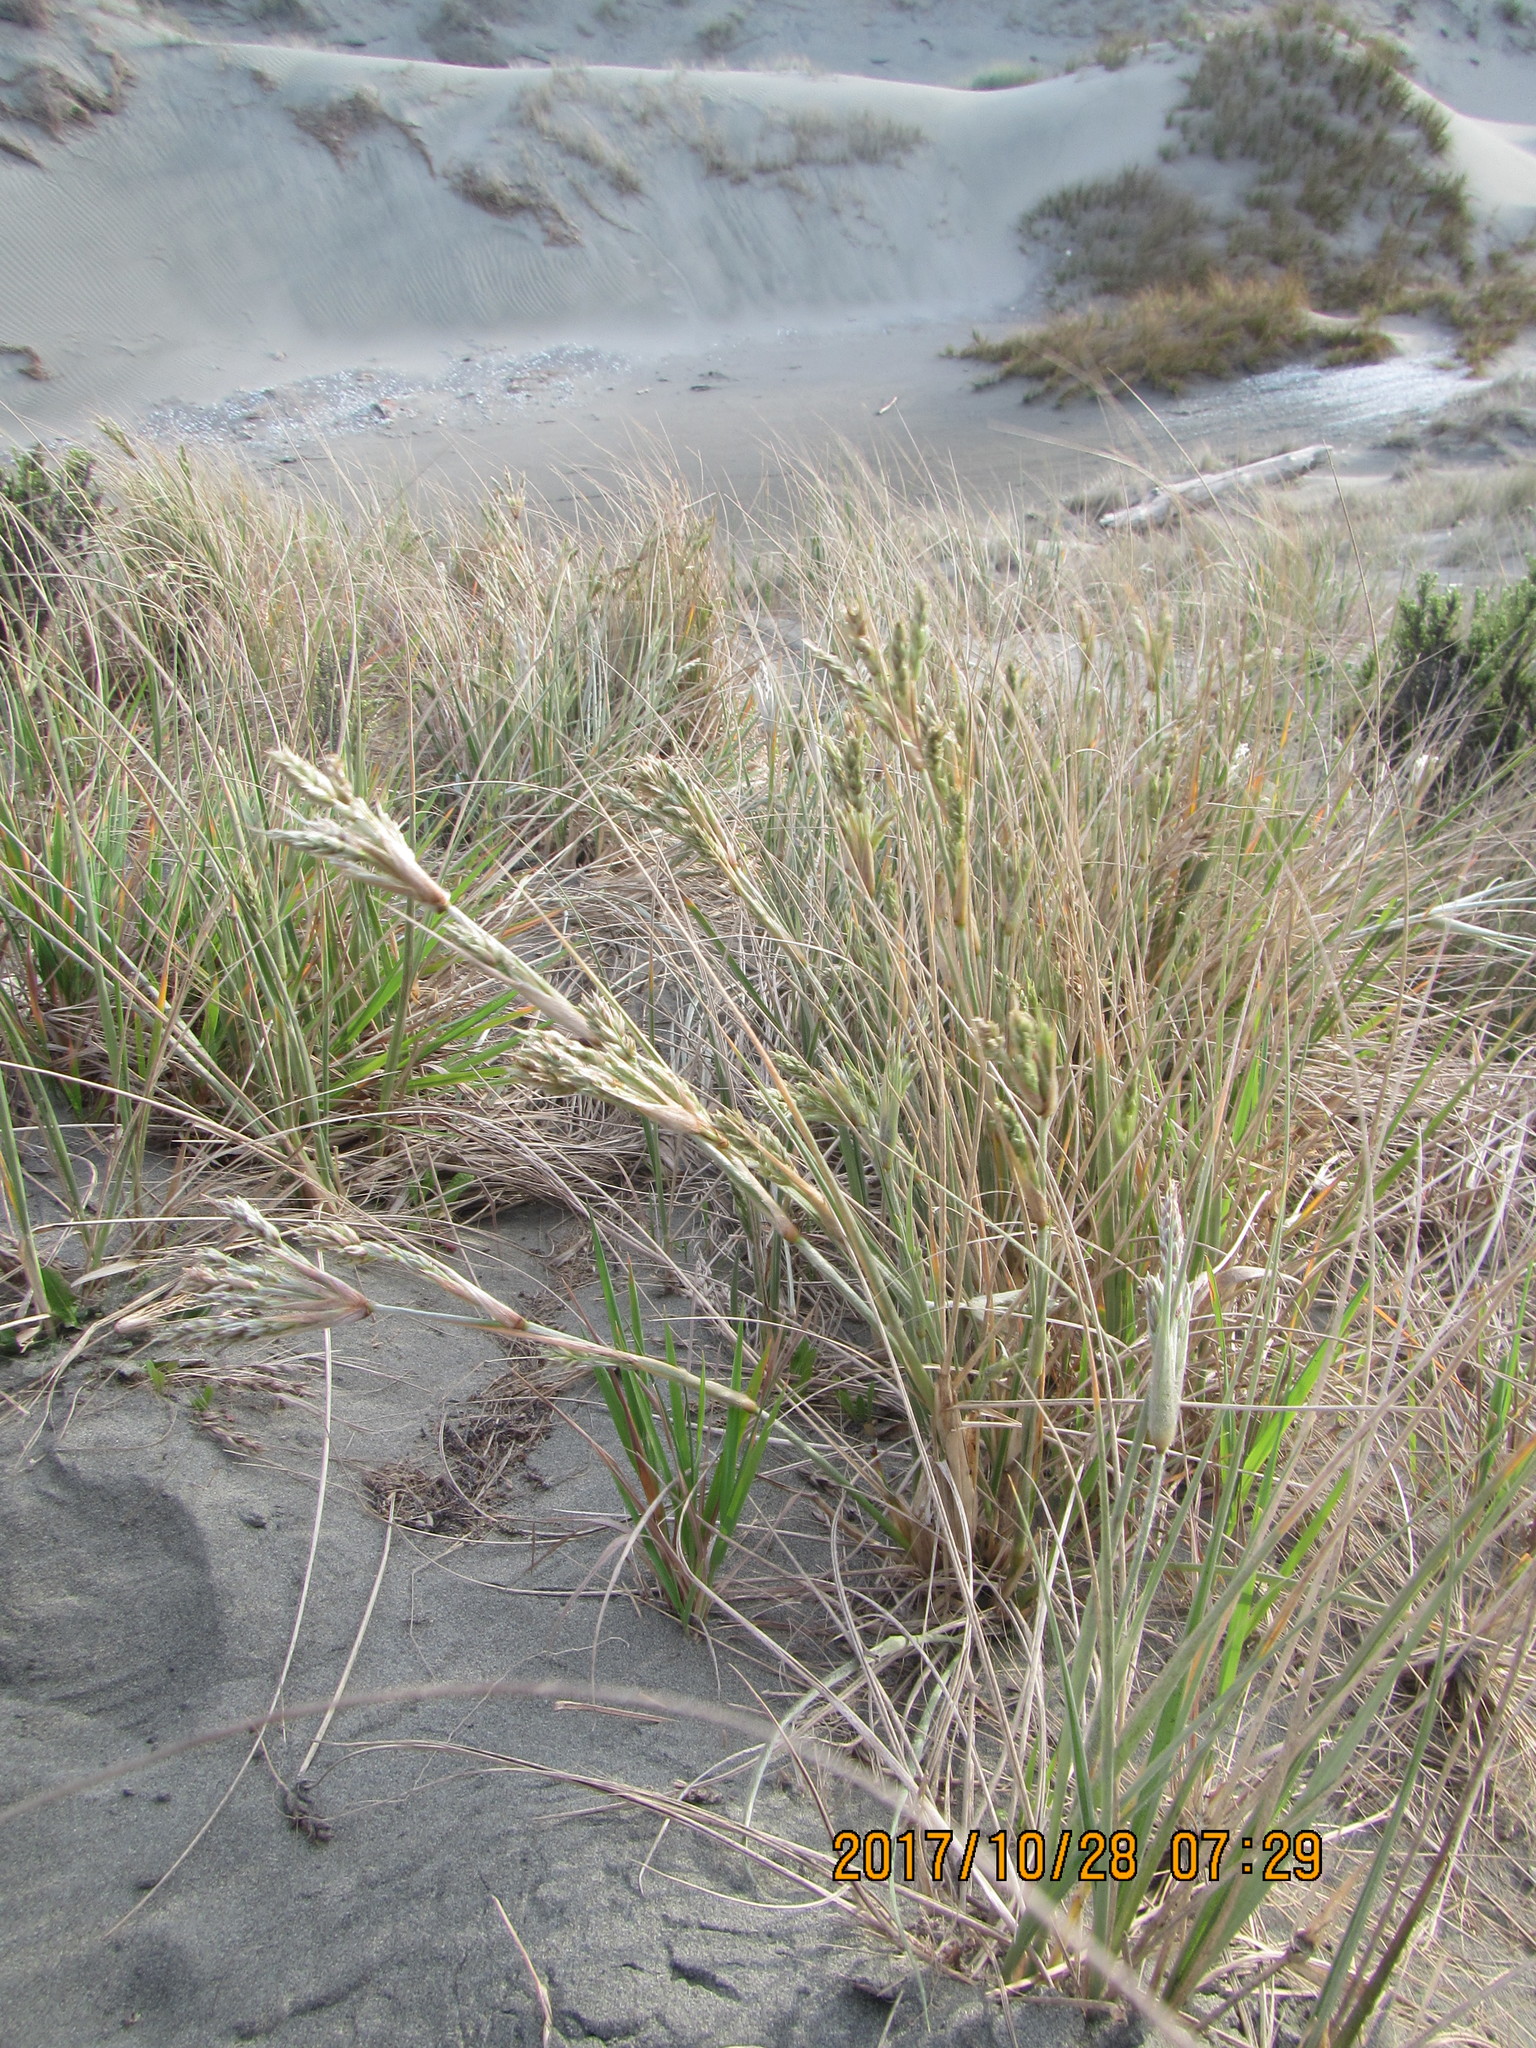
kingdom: Plantae
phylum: Tracheophyta
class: Liliopsida
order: Poales
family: Poaceae
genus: Spinifex
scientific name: Spinifex sericeus
